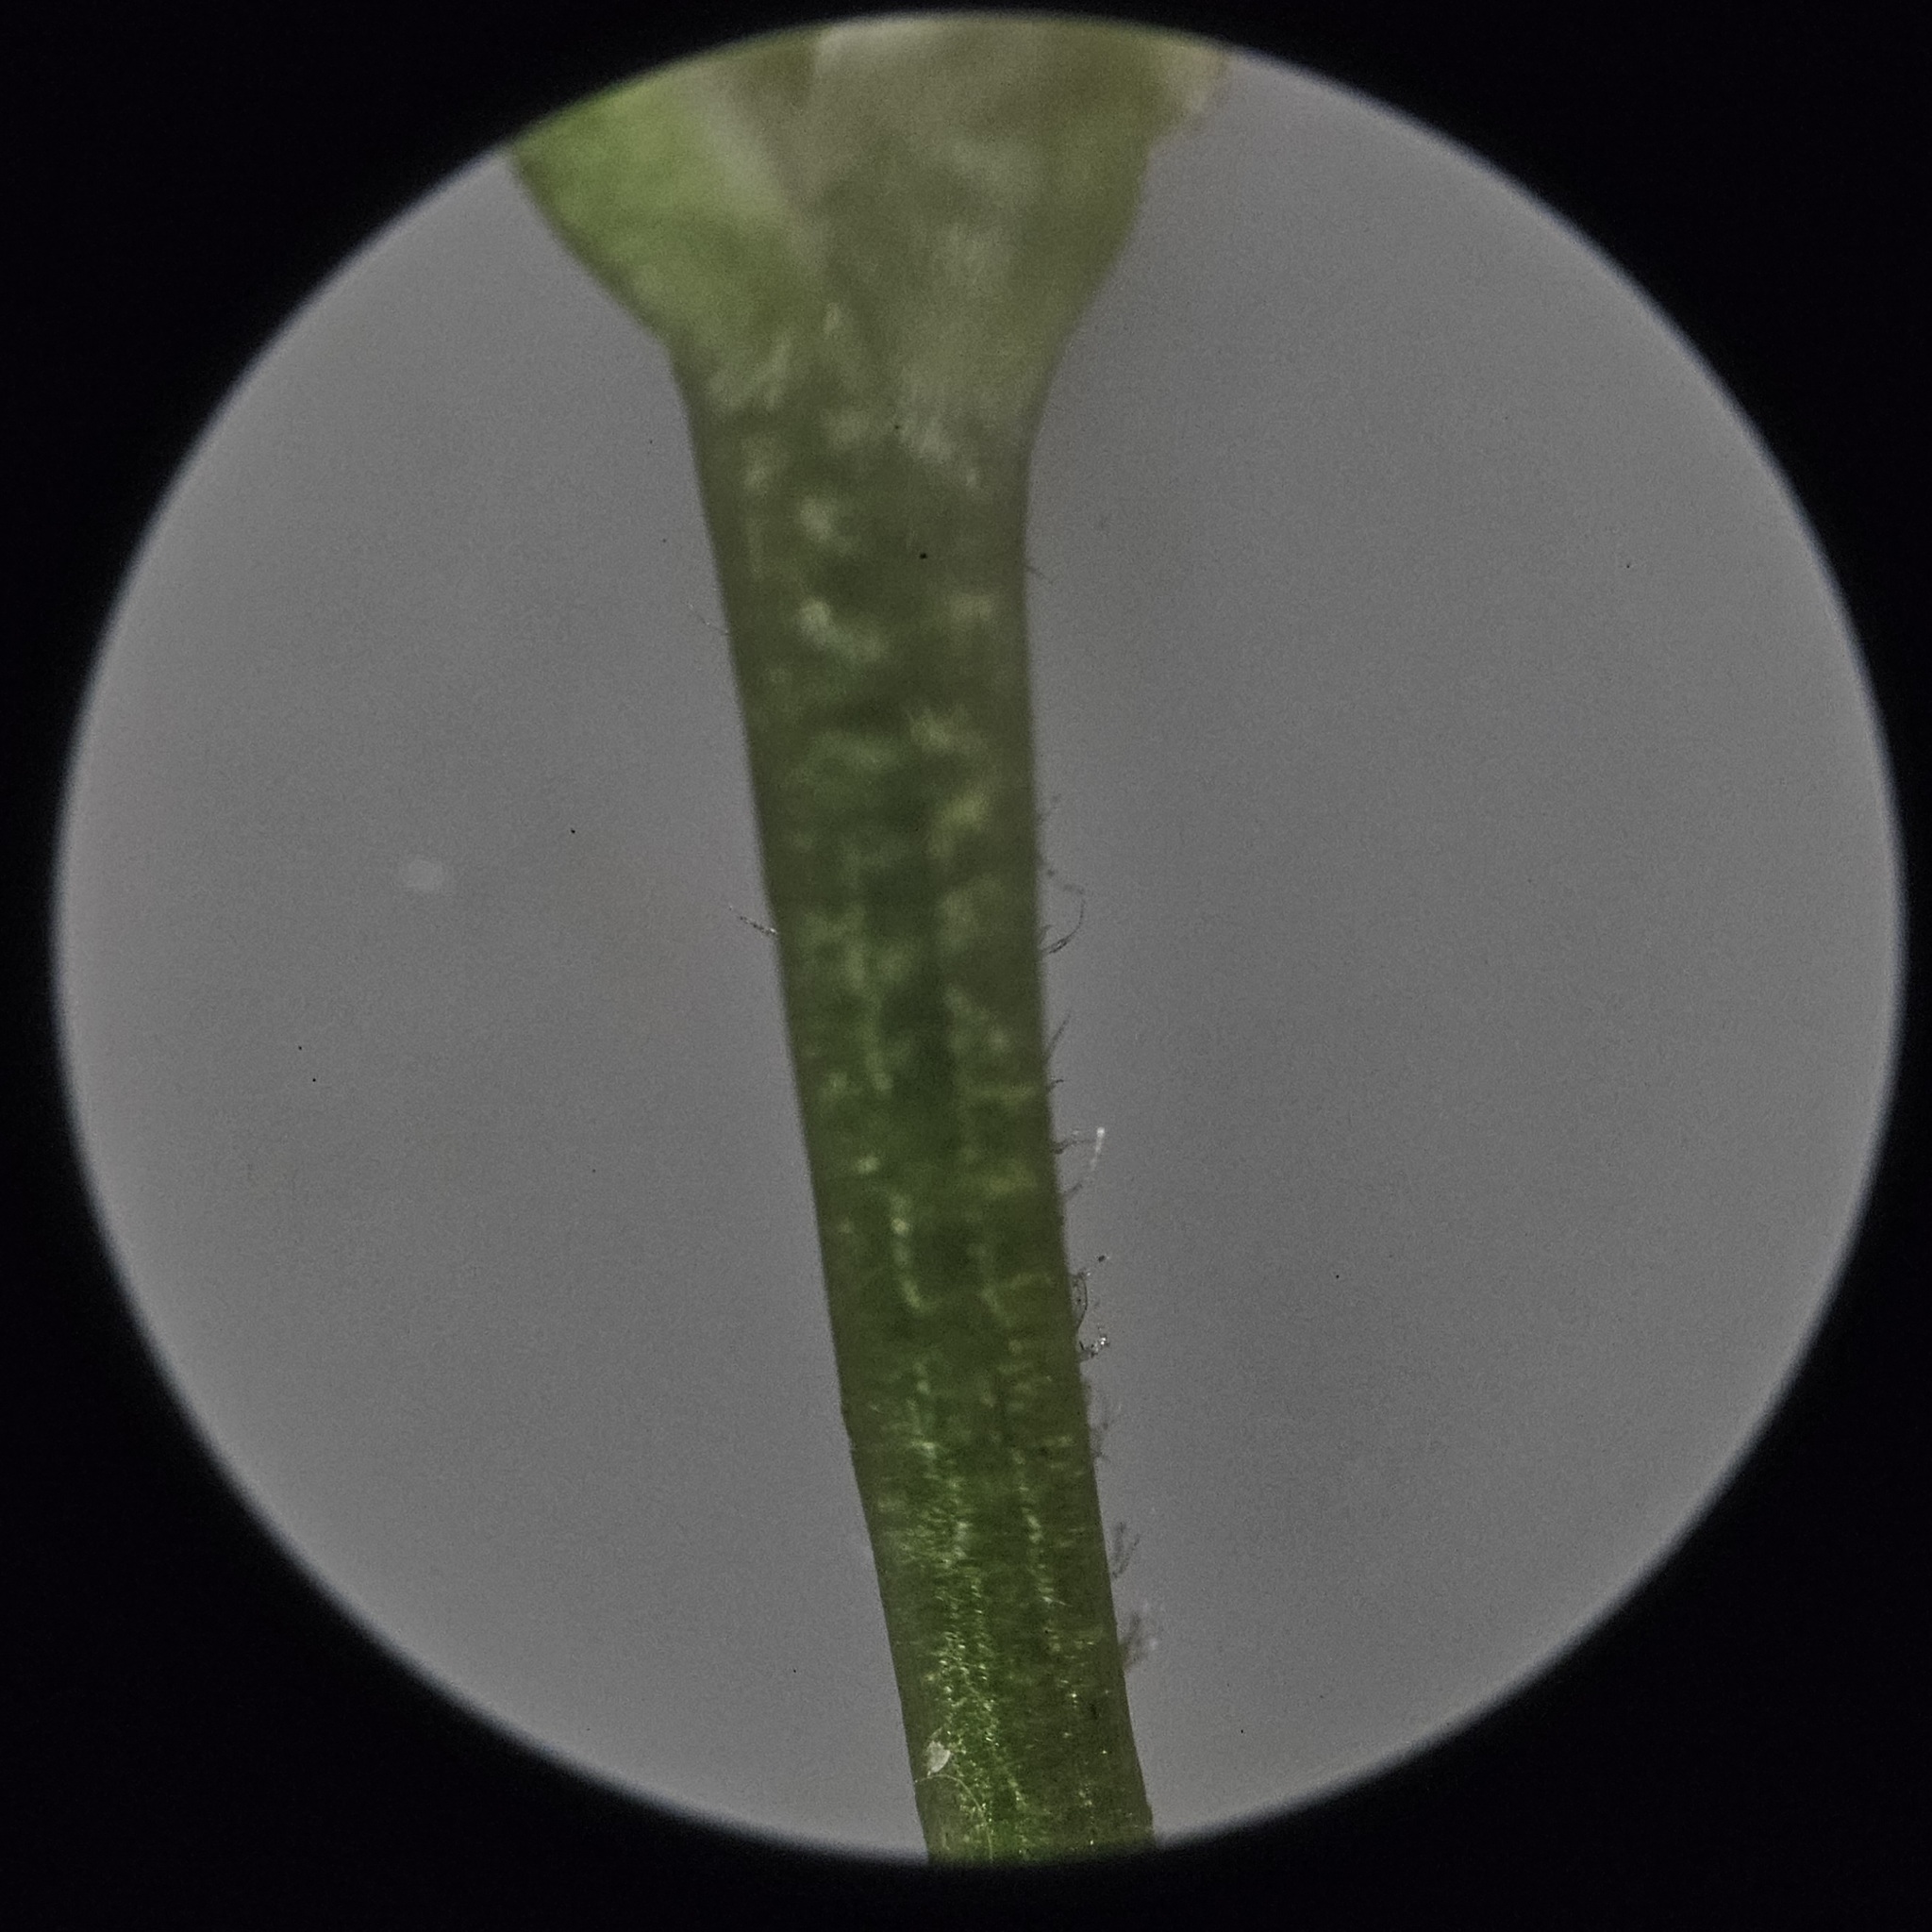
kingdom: Plantae
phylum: Tracheophyta
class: Magnoliopsida
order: Asterales
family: Asteraceae
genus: Eurybia
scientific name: Eurybia schreberi
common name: Schreber's aster
